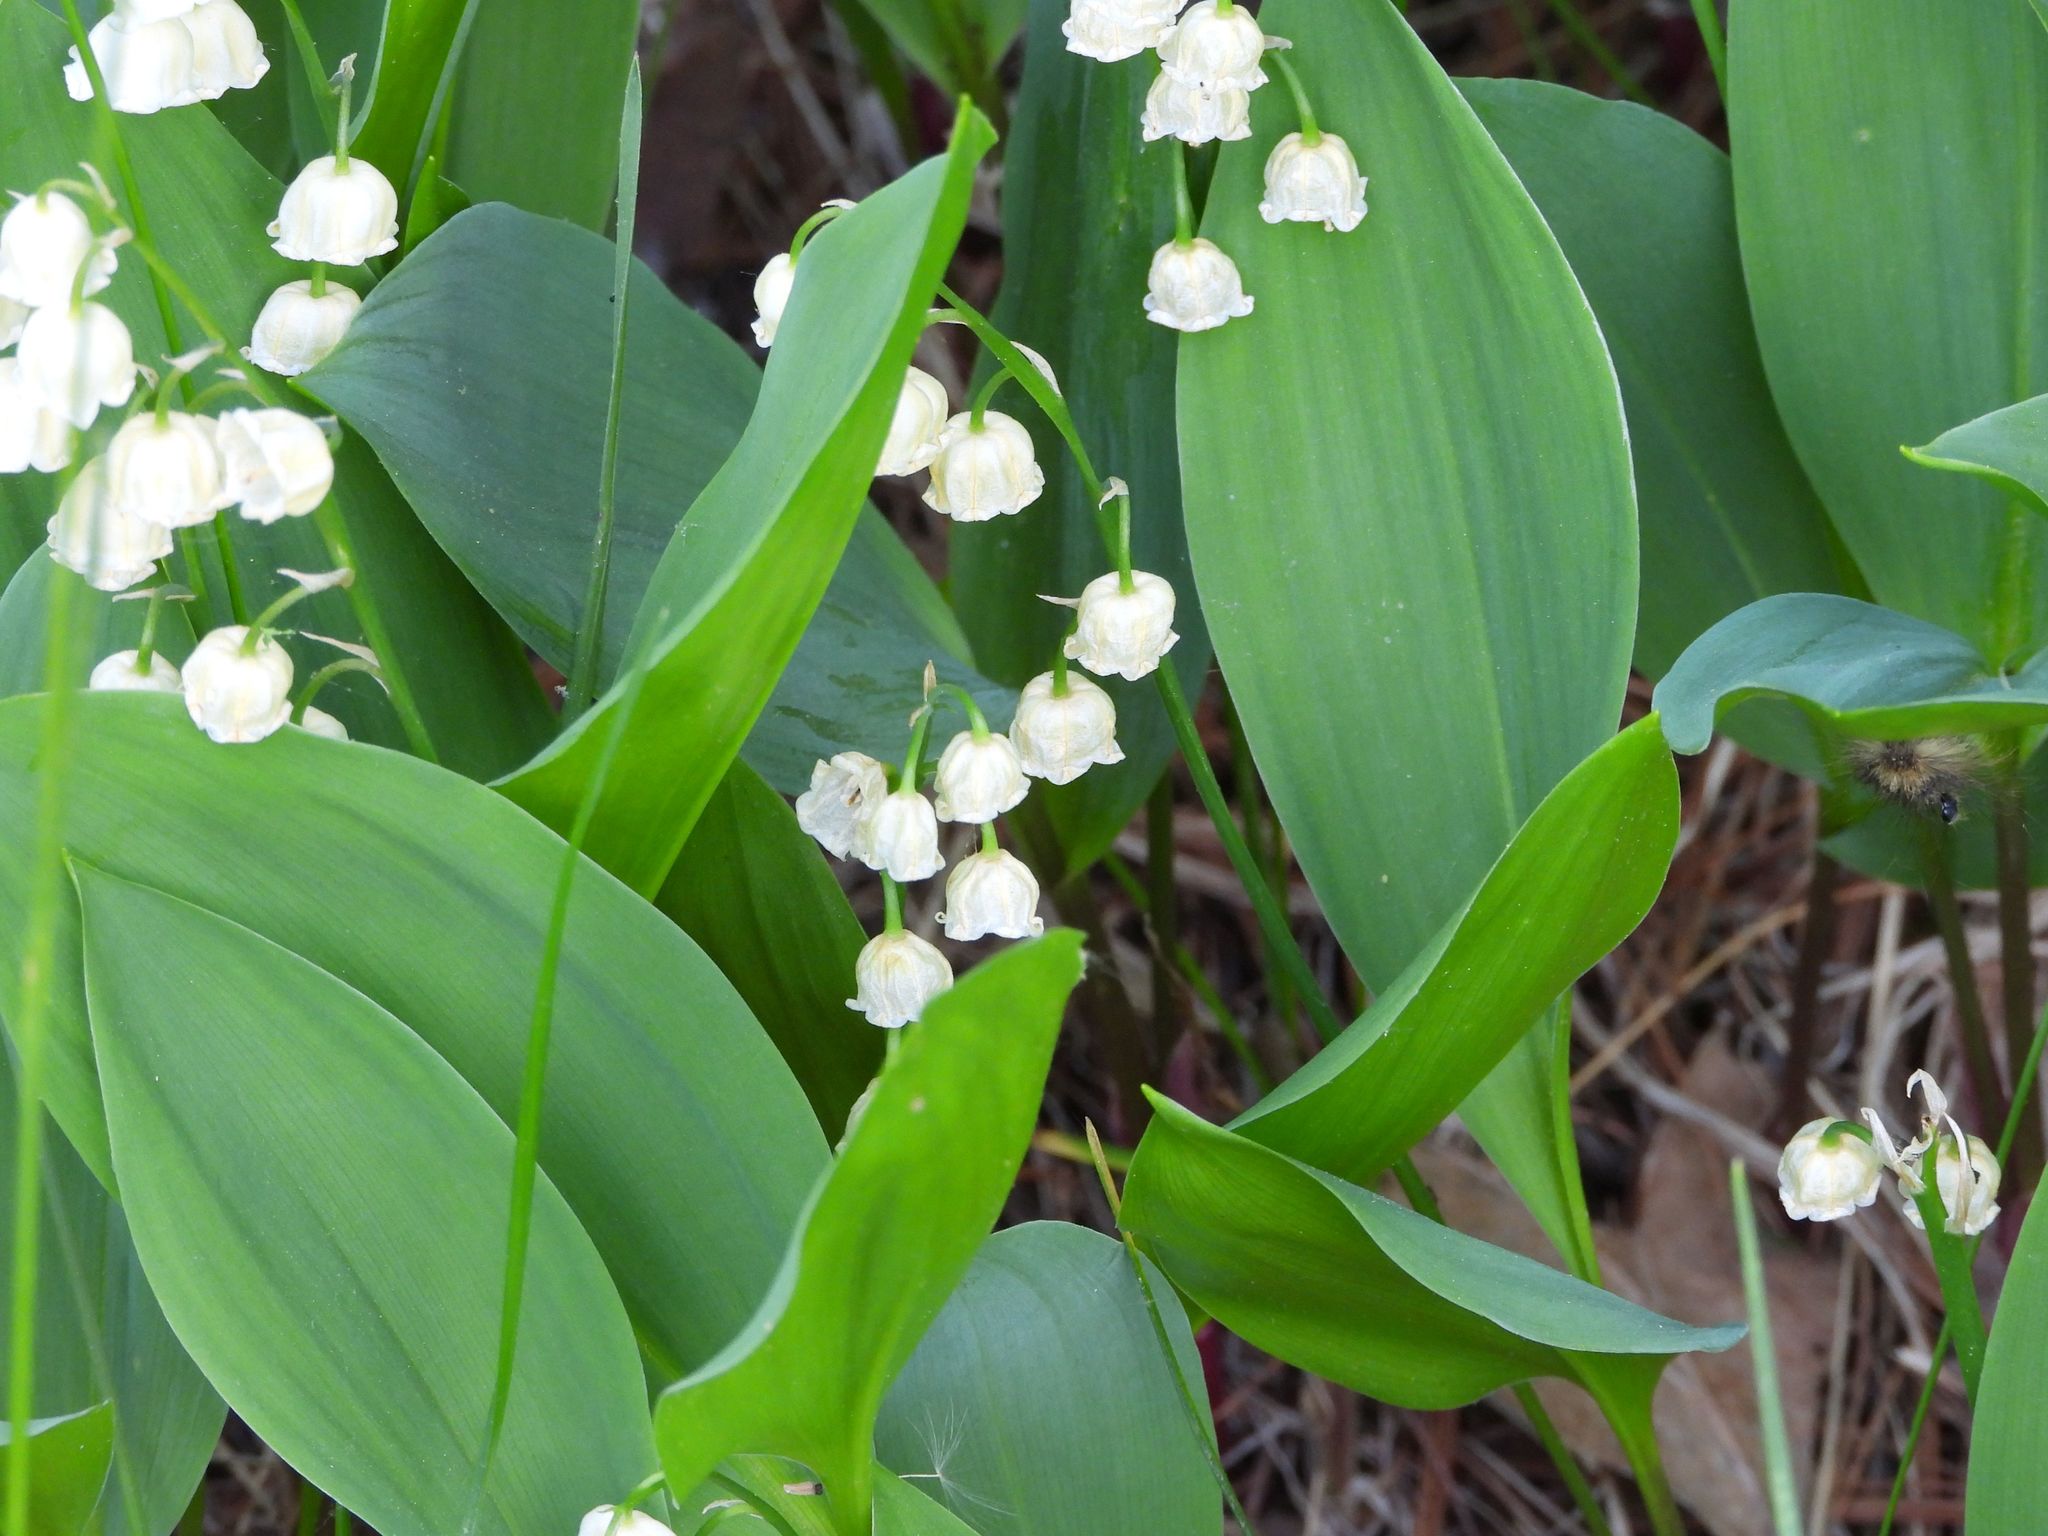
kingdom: Plantae
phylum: Tracheophyta
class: Liliopsida
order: Asparagales
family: Asparagaceae
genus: Convallaria
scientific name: Convallaria majalis
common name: Lily-of-the-valley
